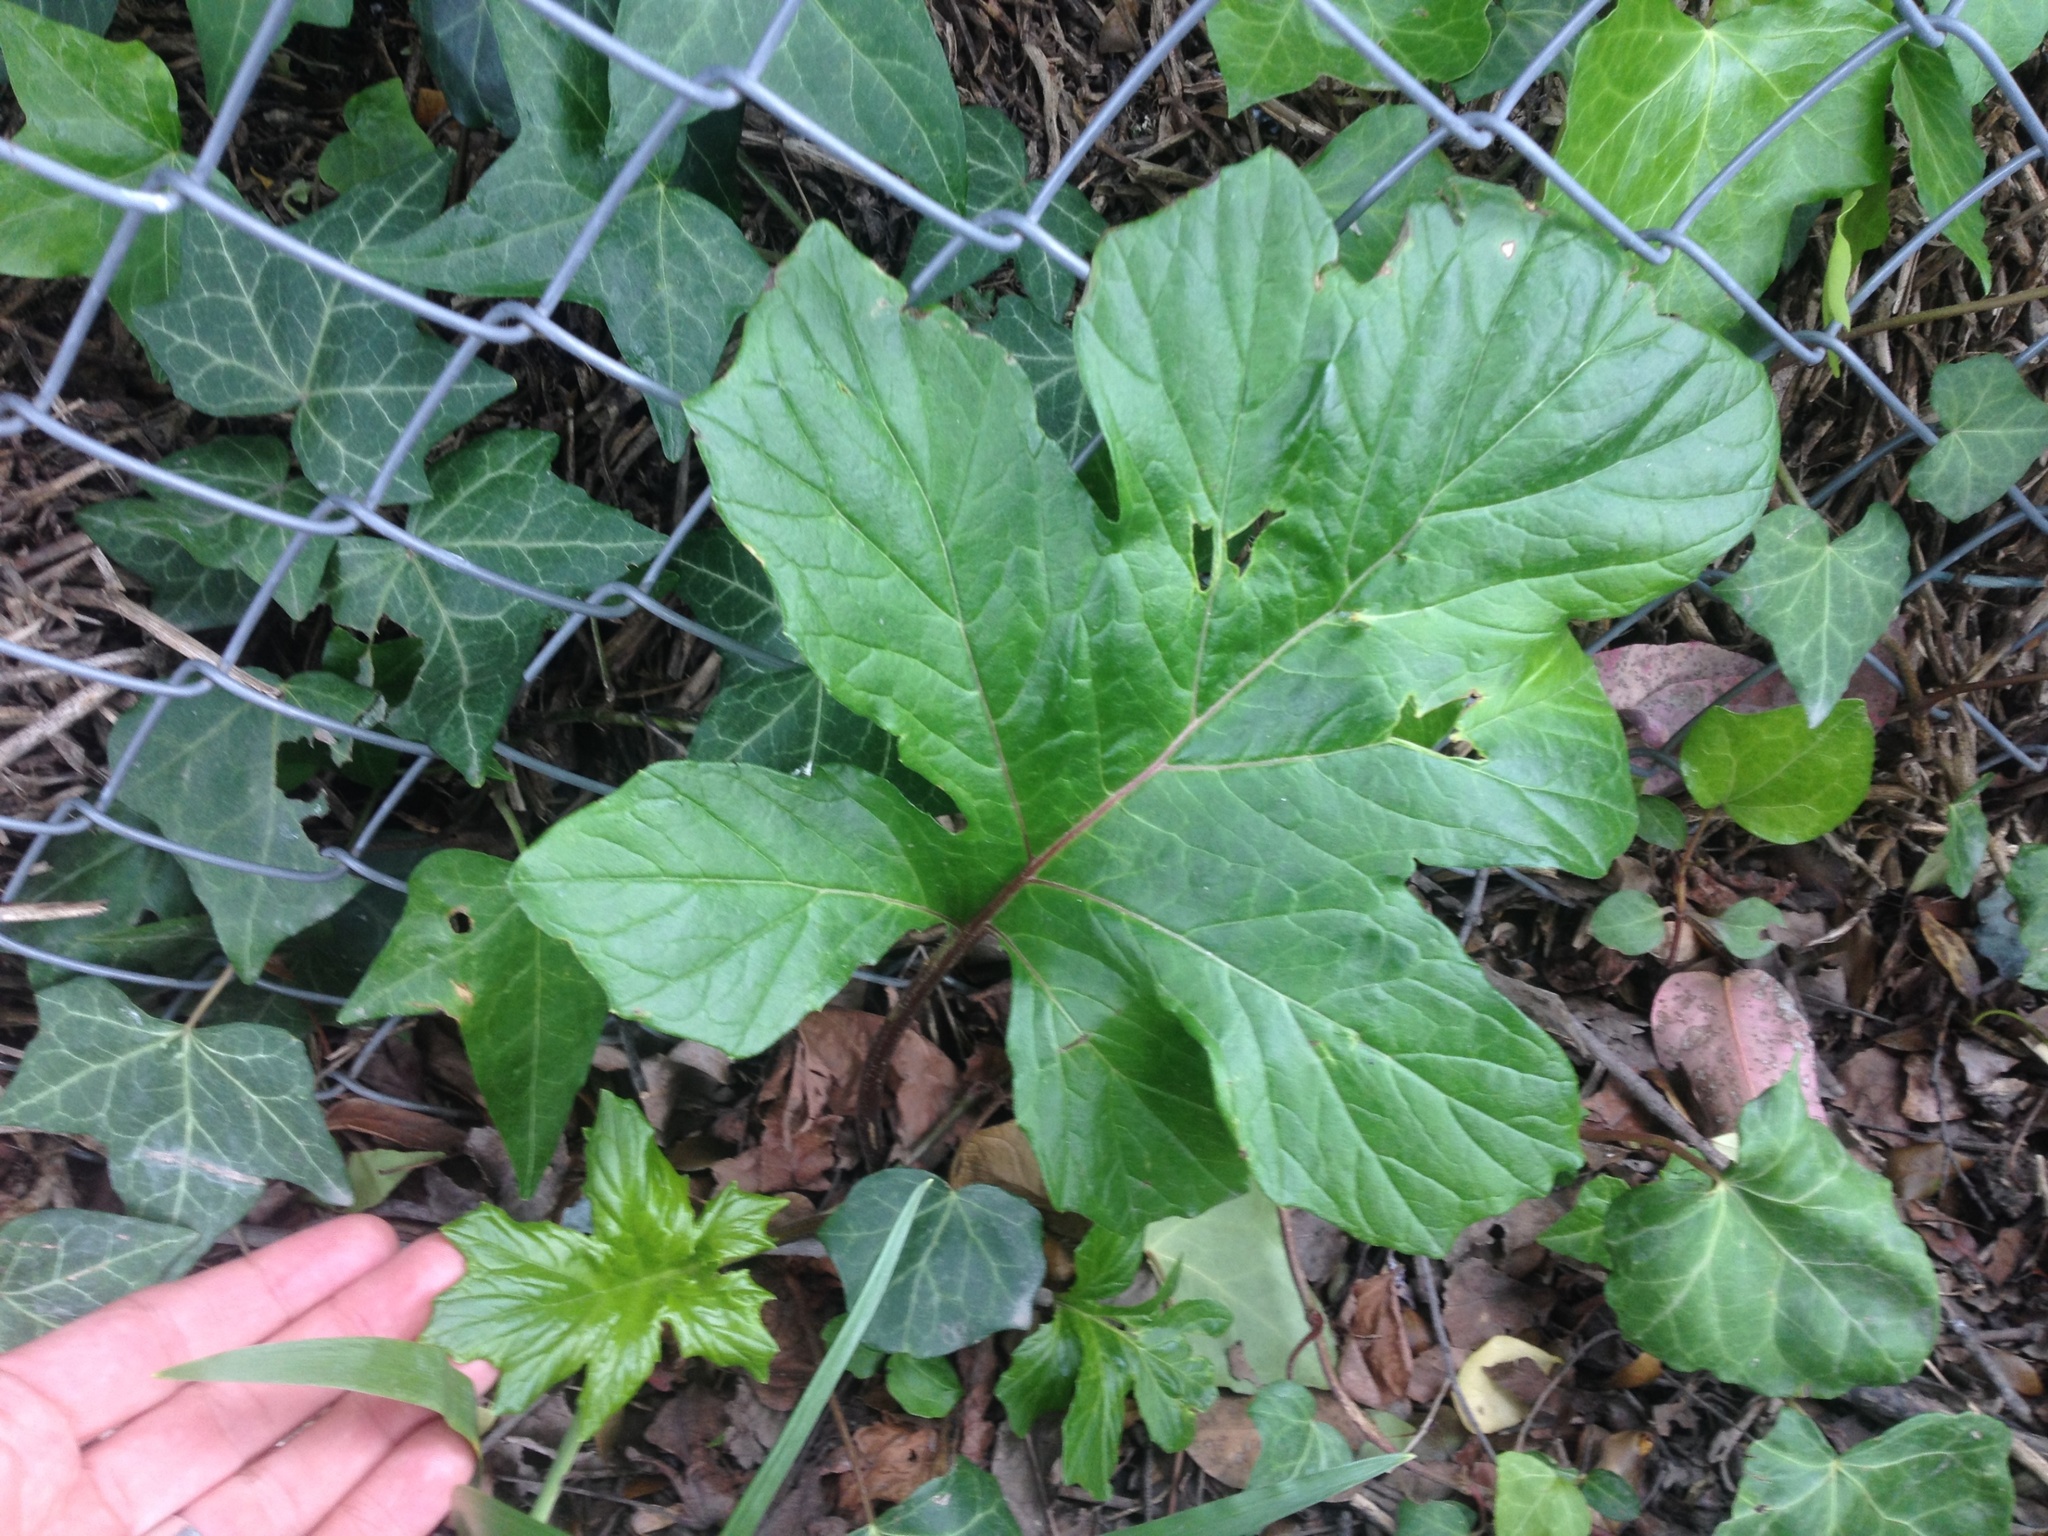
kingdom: Plantae
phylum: Tracheophyta
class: Magnoliopsida
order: Lamiales
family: Acanthaceae
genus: Acanthus
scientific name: Acanthus mollis
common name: Bear's-breech
